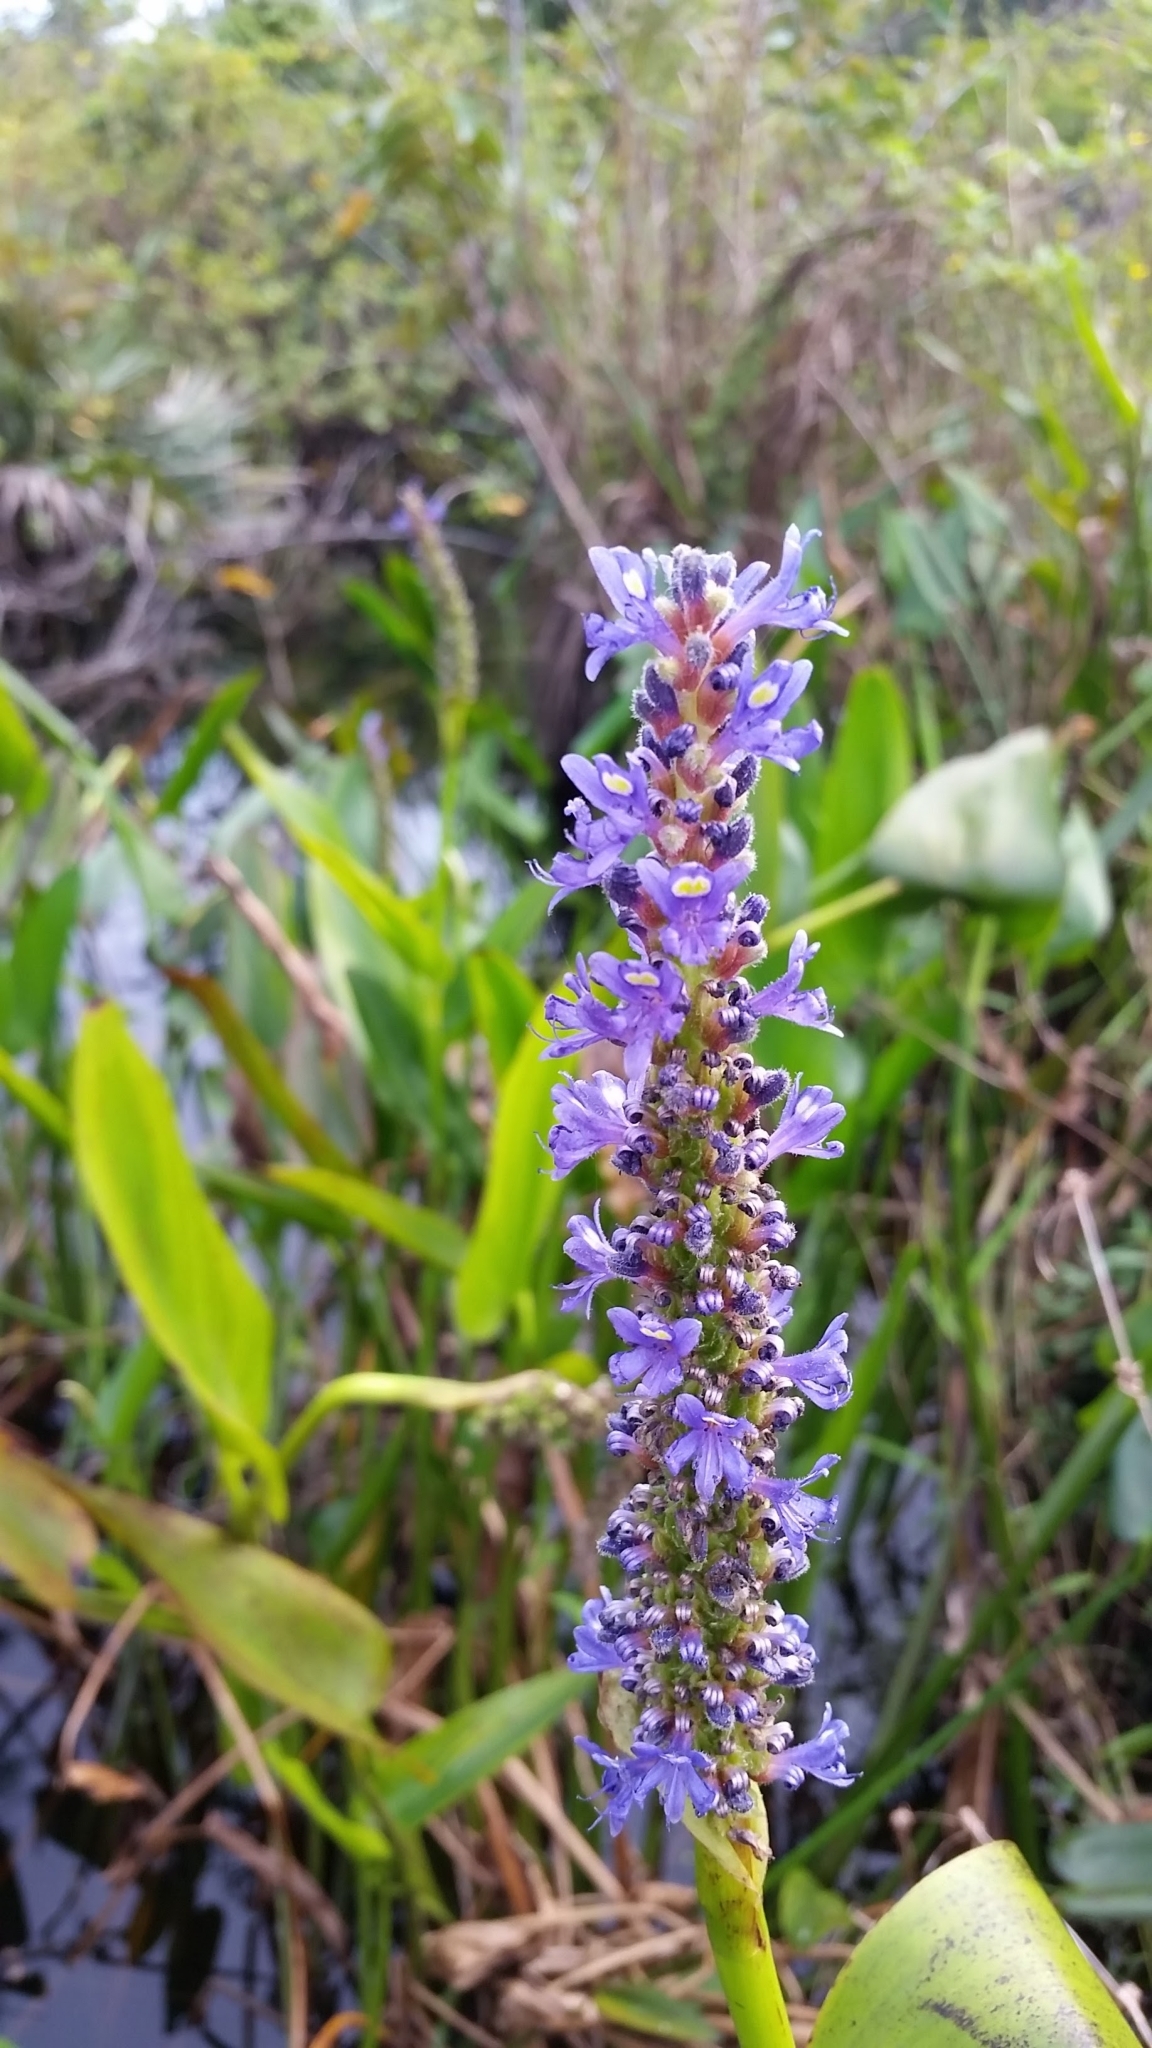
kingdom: Plantae
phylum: Tracheophyta
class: Liliopsida
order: Commelinales
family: Pontederiaceae
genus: Pontederia
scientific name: Pontederia cordata
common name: Pickerelweed
